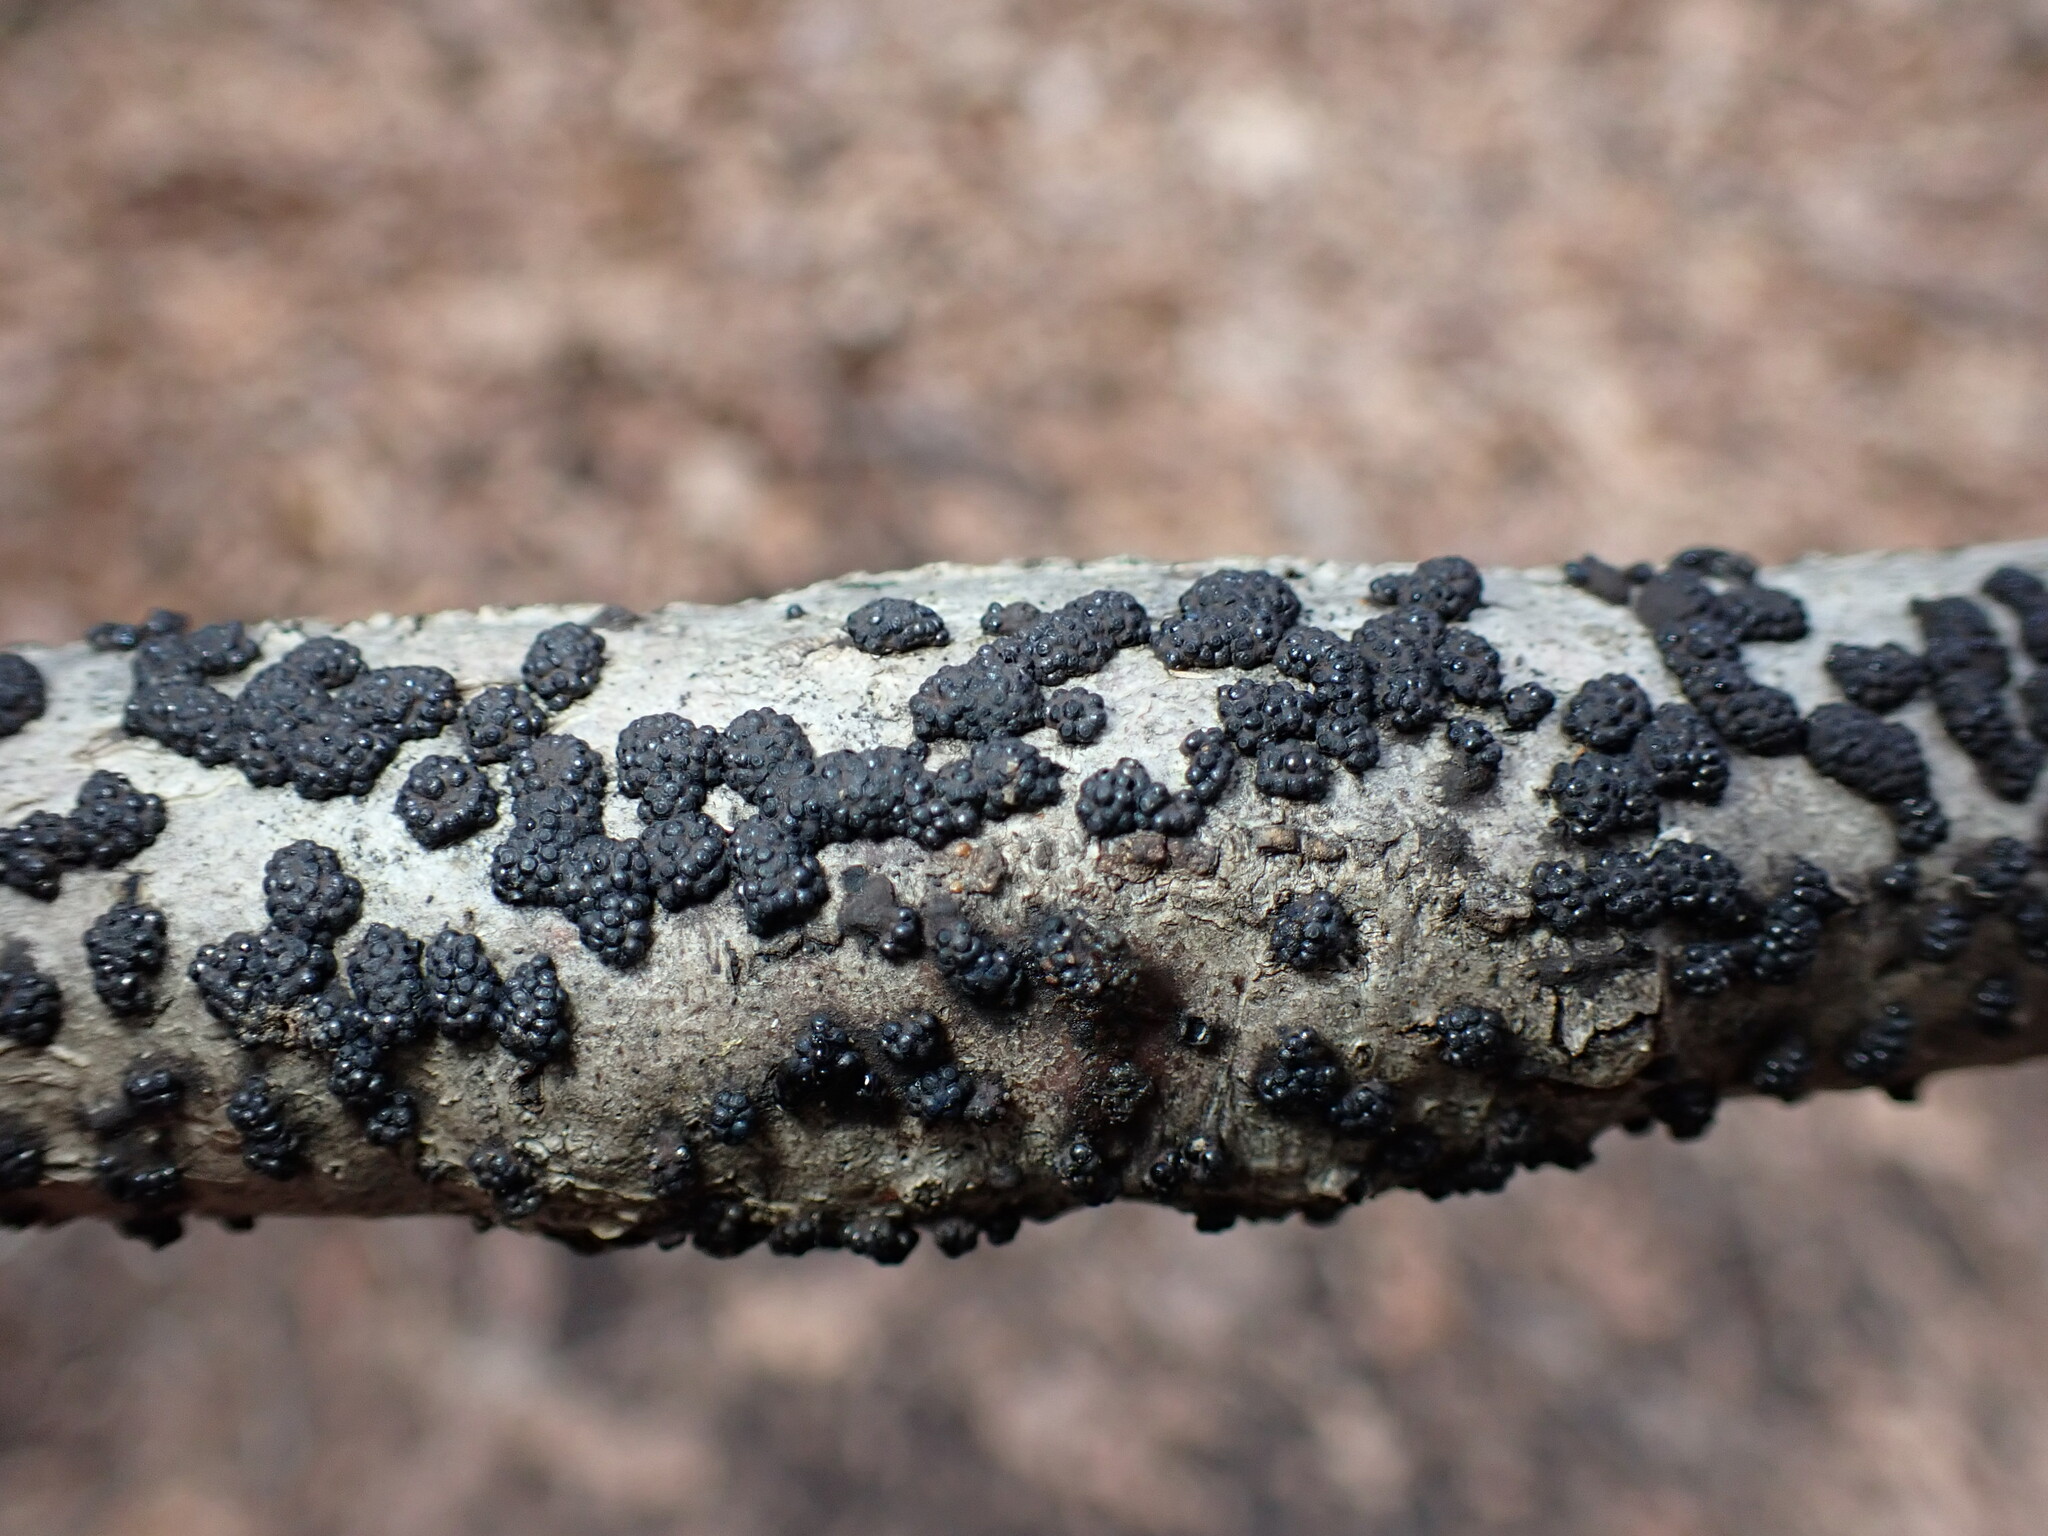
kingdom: Fungi
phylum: Ascomycota
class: Sordariomycetes
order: Xylariales
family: Hypoxylaceae
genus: Annulohypoxylon
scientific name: Annulohypoxylon truncatum
